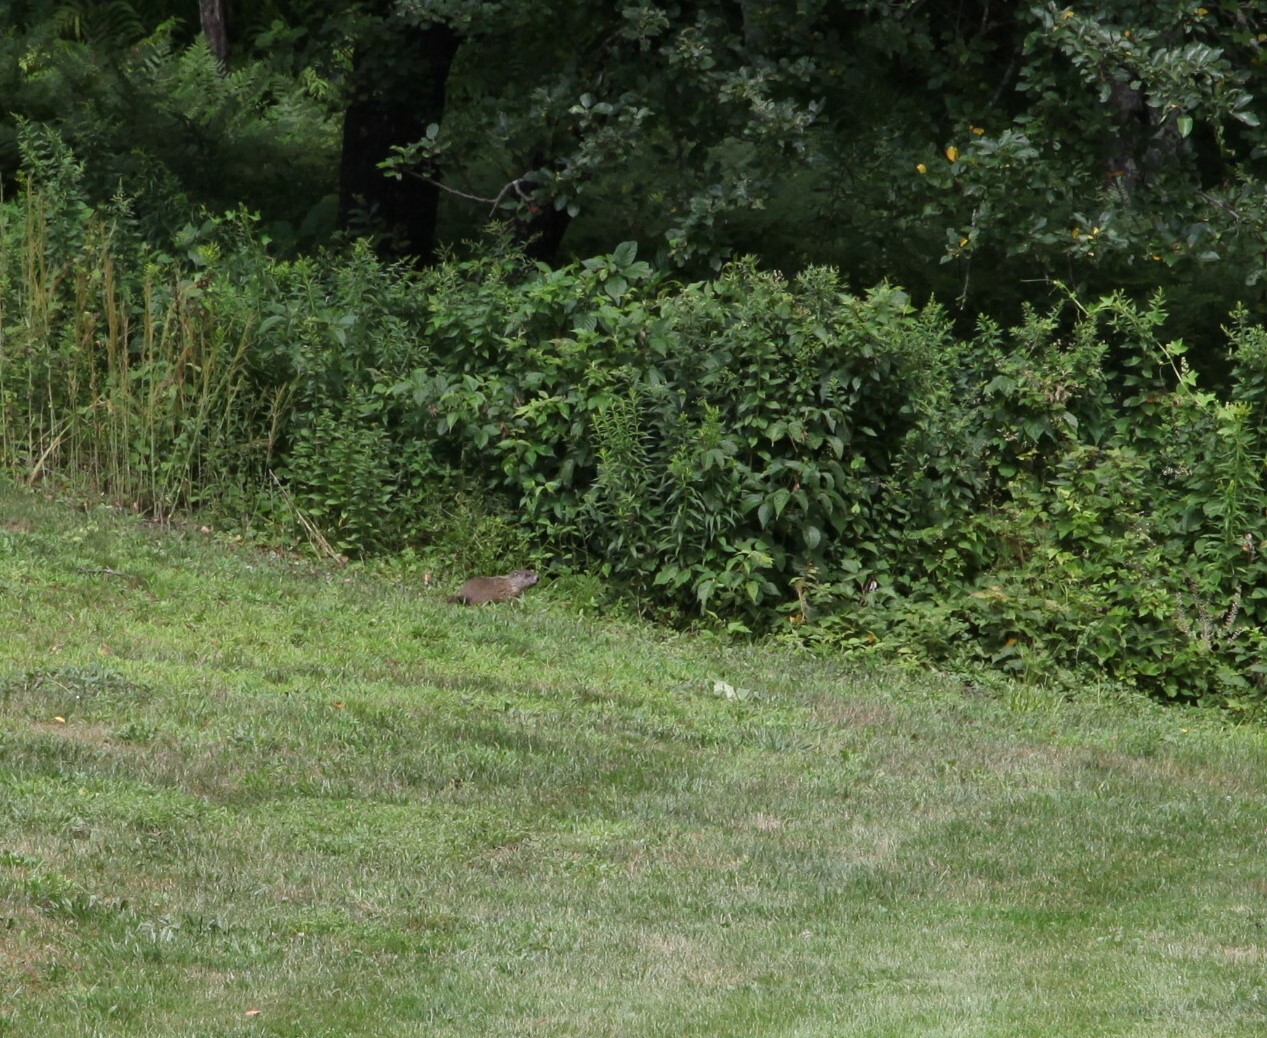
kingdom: Animalia
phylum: Chordata
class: Mammalia
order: Rodentia
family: Sciuridae
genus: Marmota
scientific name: Marmota monax
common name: Groundhog
